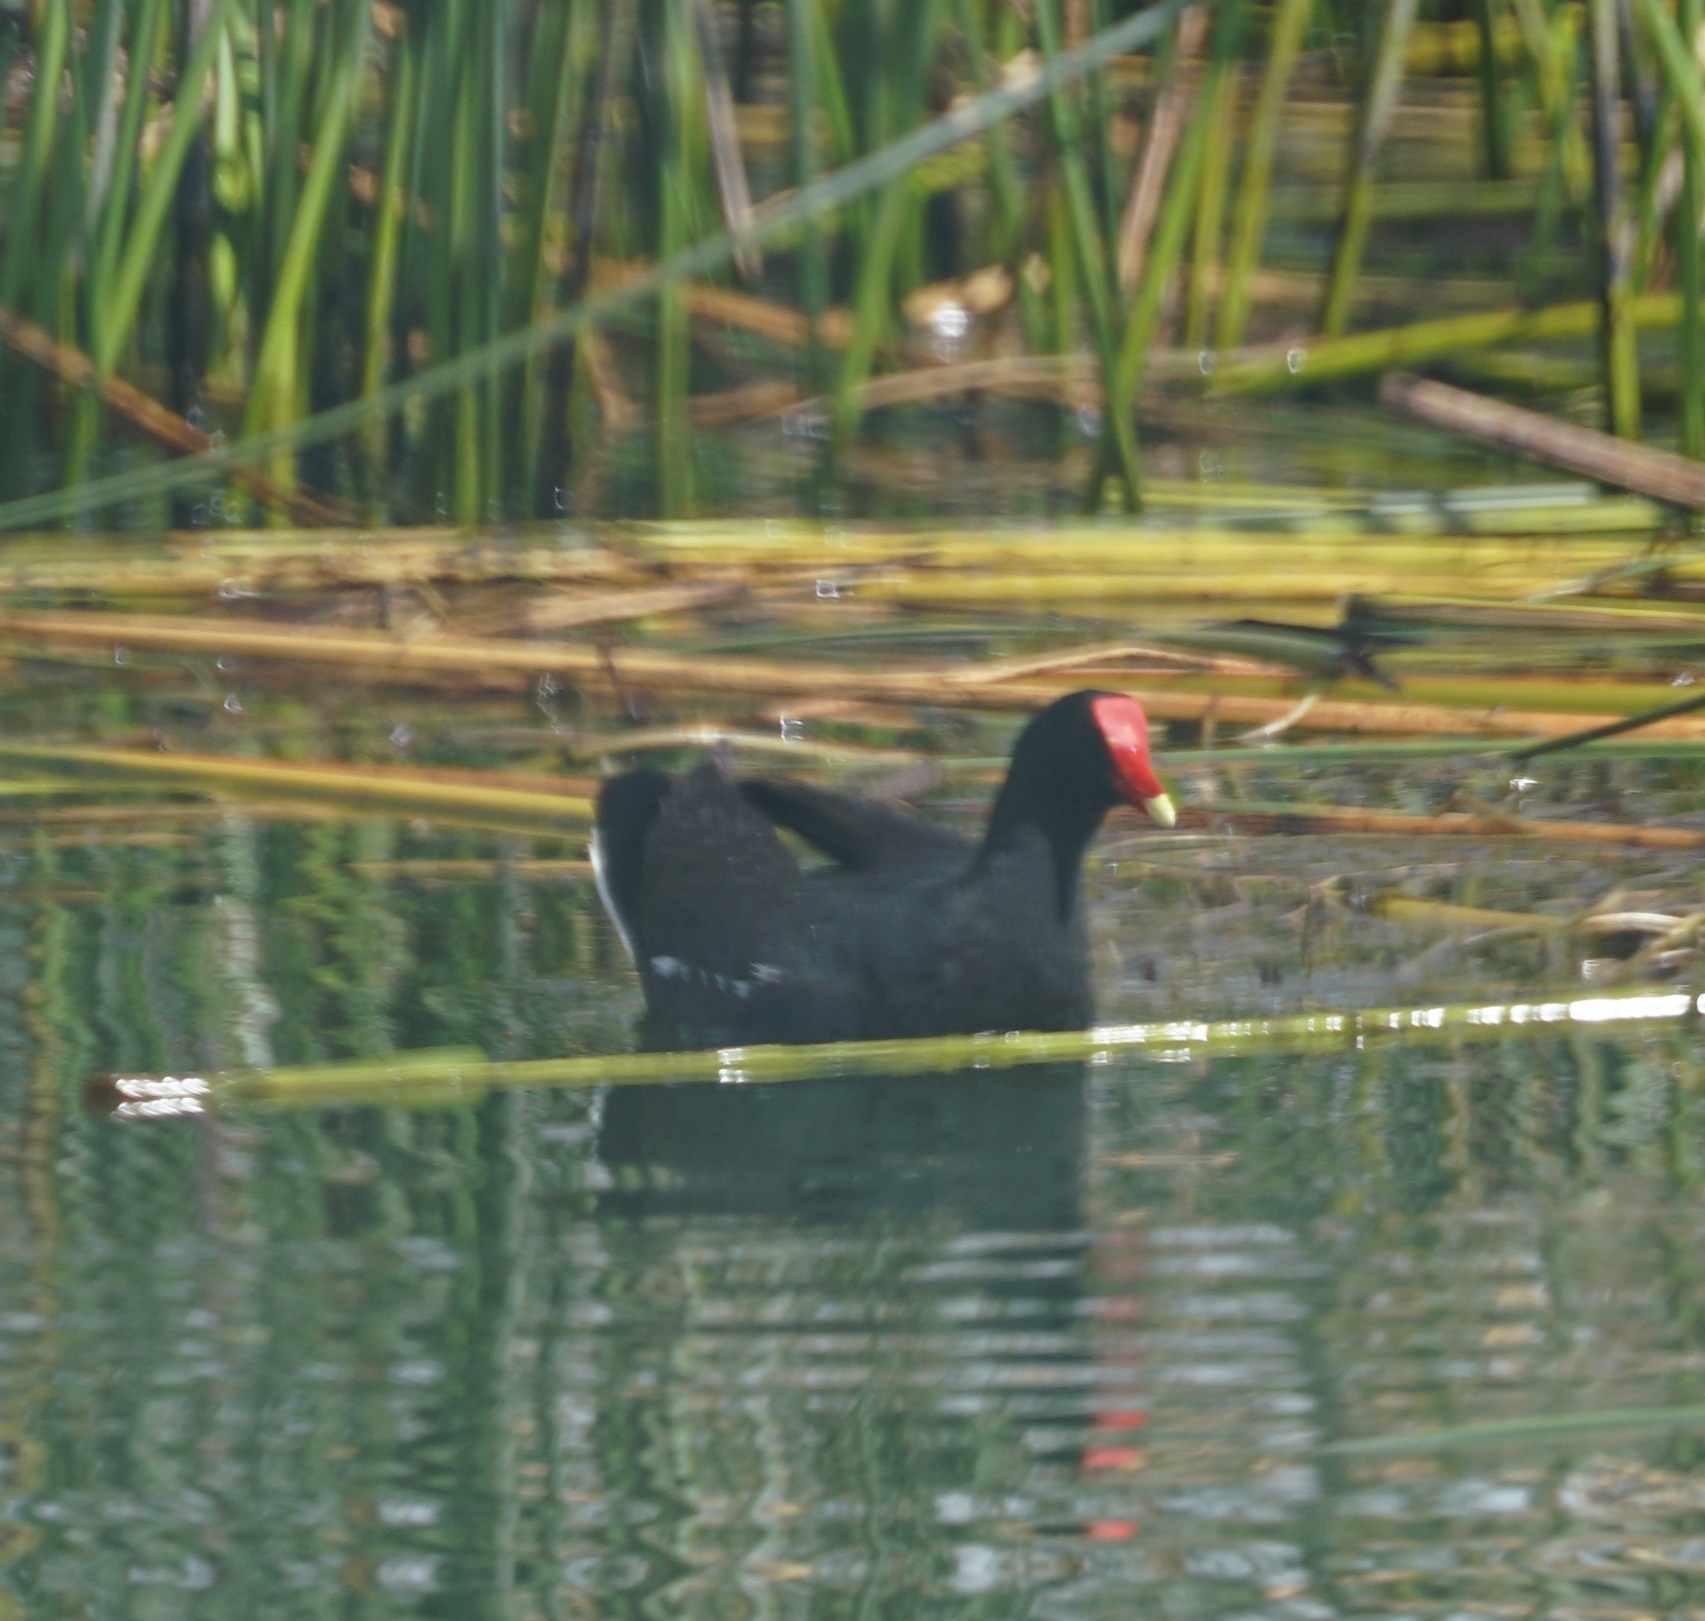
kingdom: Animalia
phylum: Chordata
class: Aves
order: Gruiformes
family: Rallidae
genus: Gallinula
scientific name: Gallinula chloropus
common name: Common moorhen
